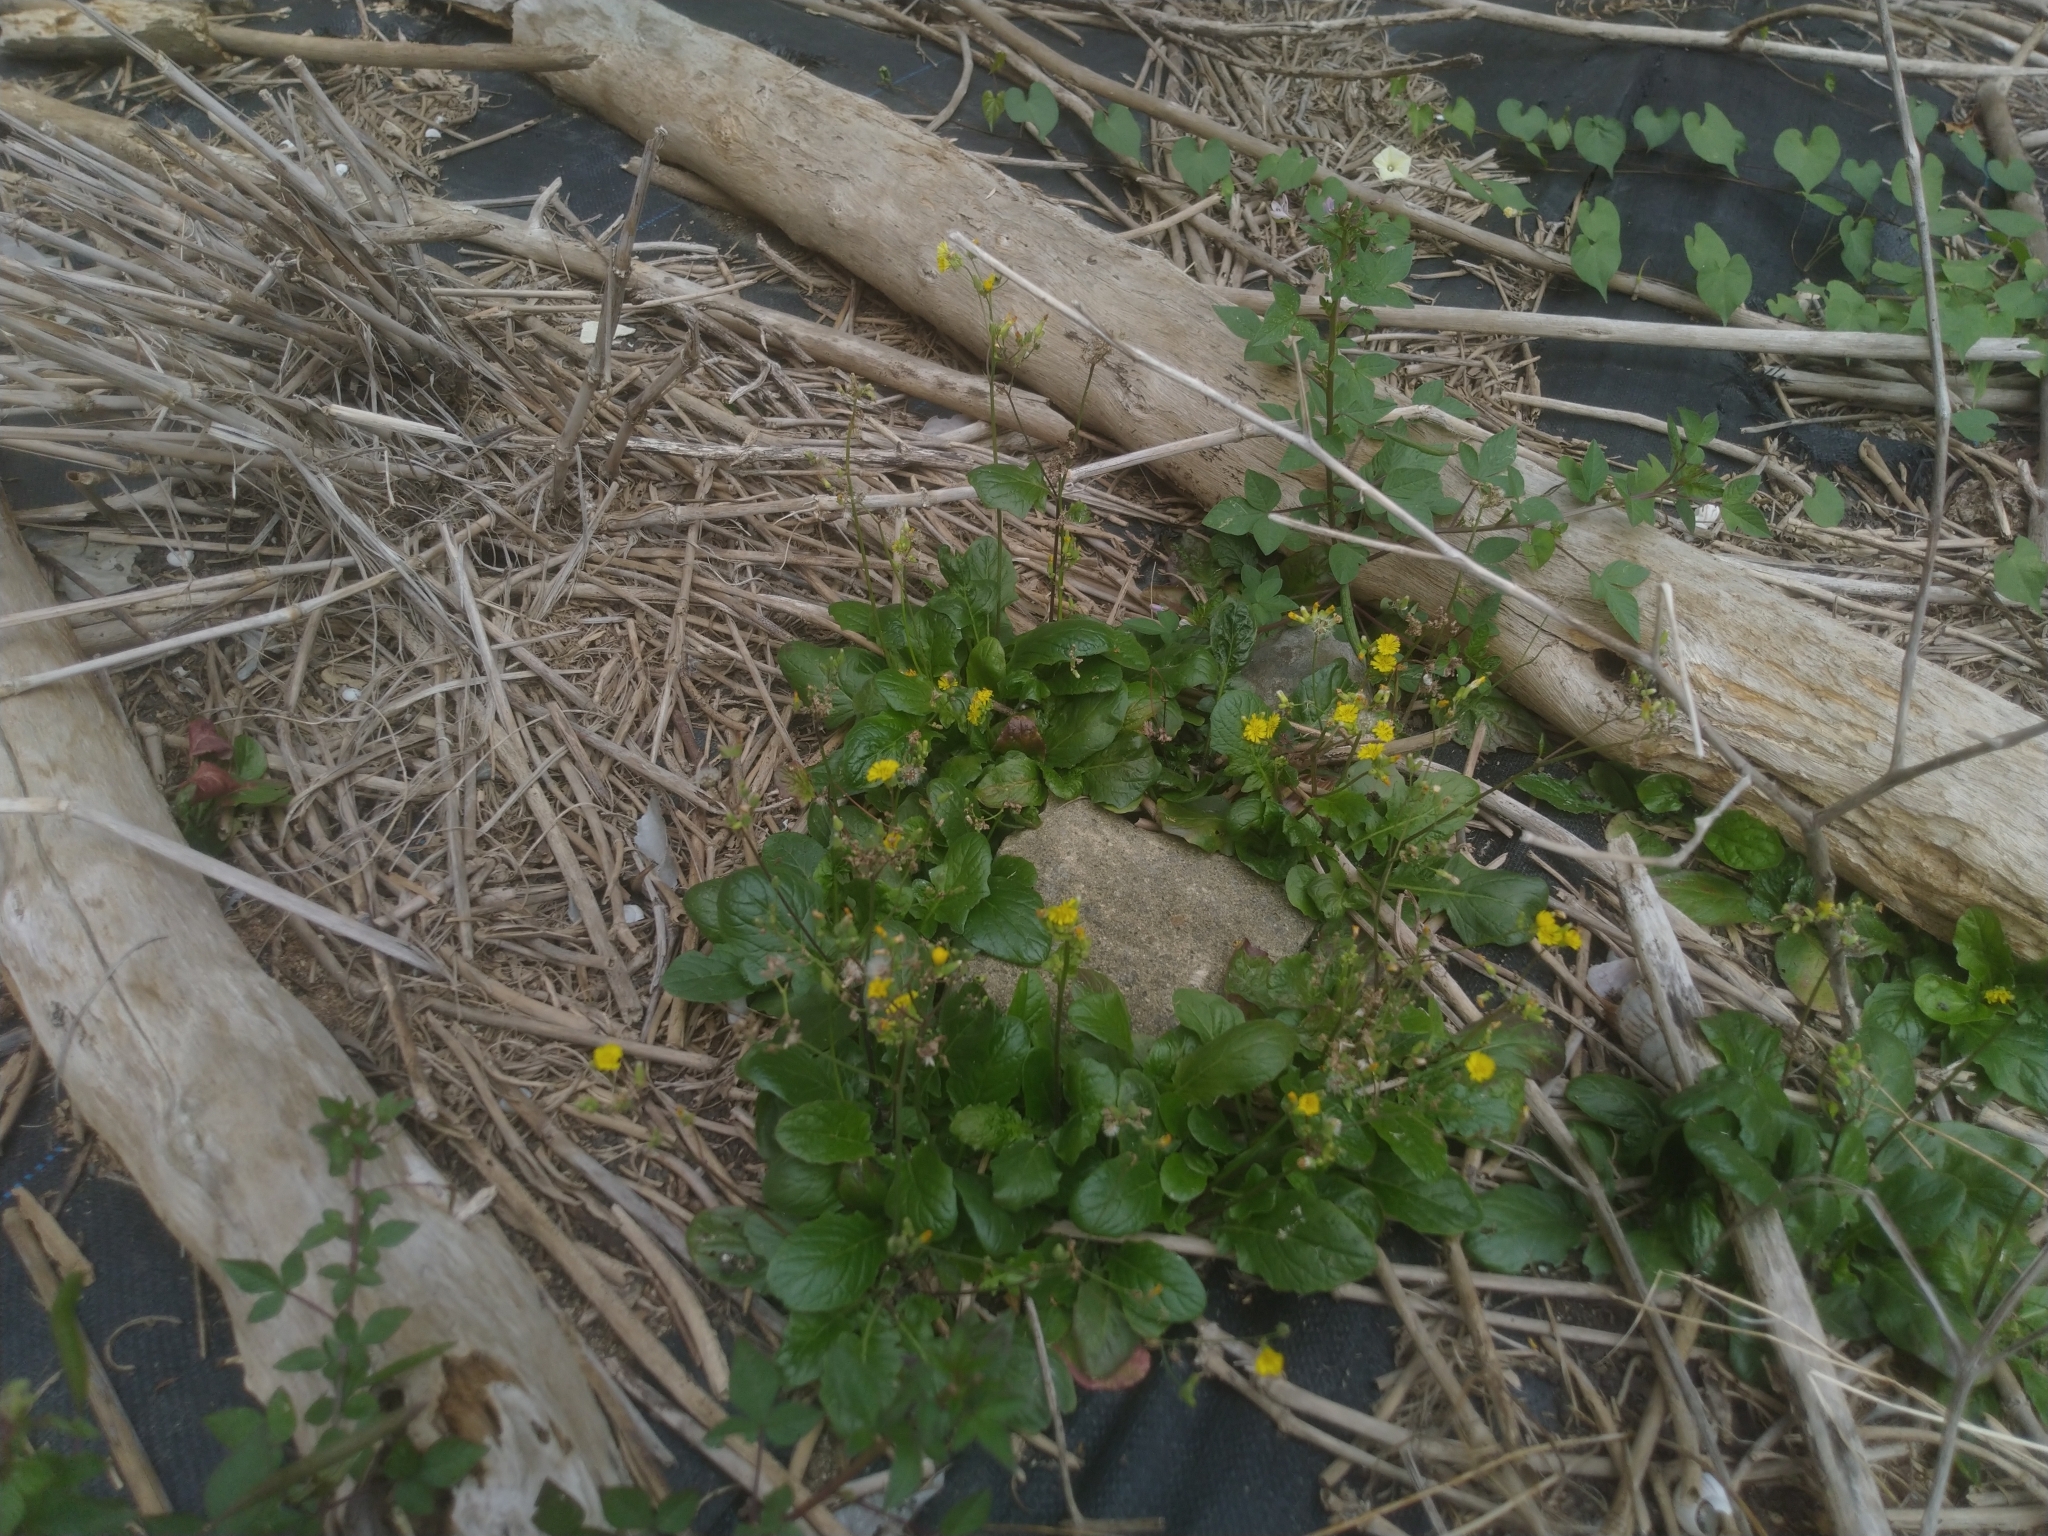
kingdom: Plantae
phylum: Tracheophyta
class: Magnoliopsida
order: Asterales
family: Asteraceae
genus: Youngia
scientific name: Youngia japonica
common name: Oriental false hawksbeard
